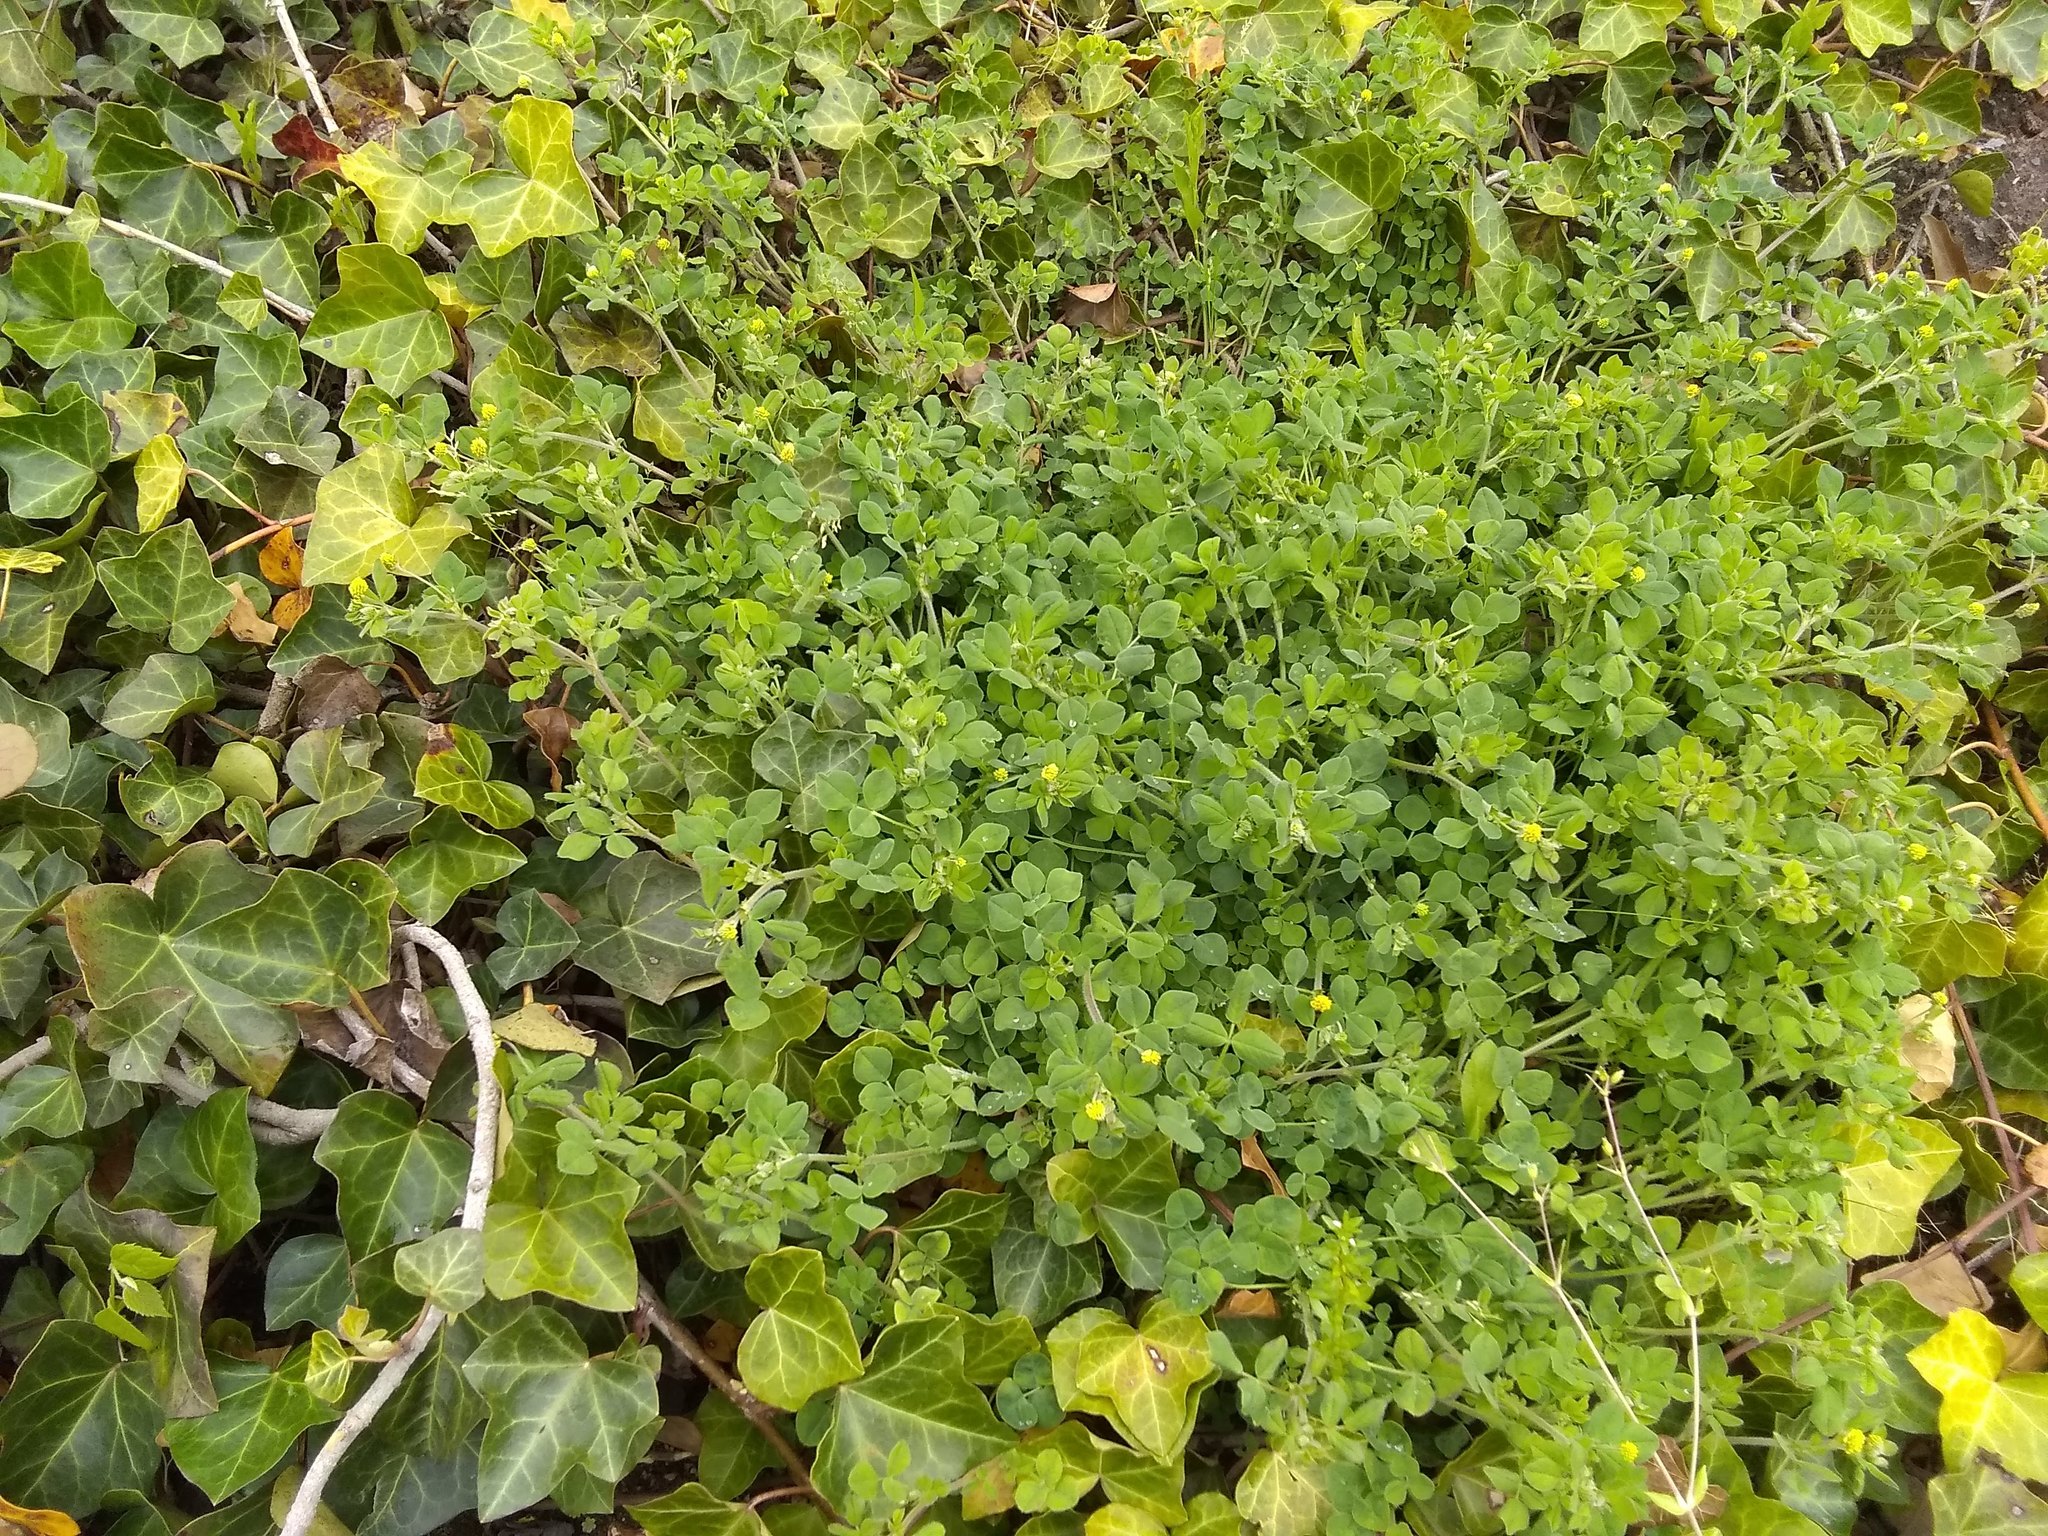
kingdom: Plantae
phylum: Tracheophyta
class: Magnoliopsida
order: Fabales
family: Fabaceae
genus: Medicago
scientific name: Medicago lupulina
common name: Black medick
